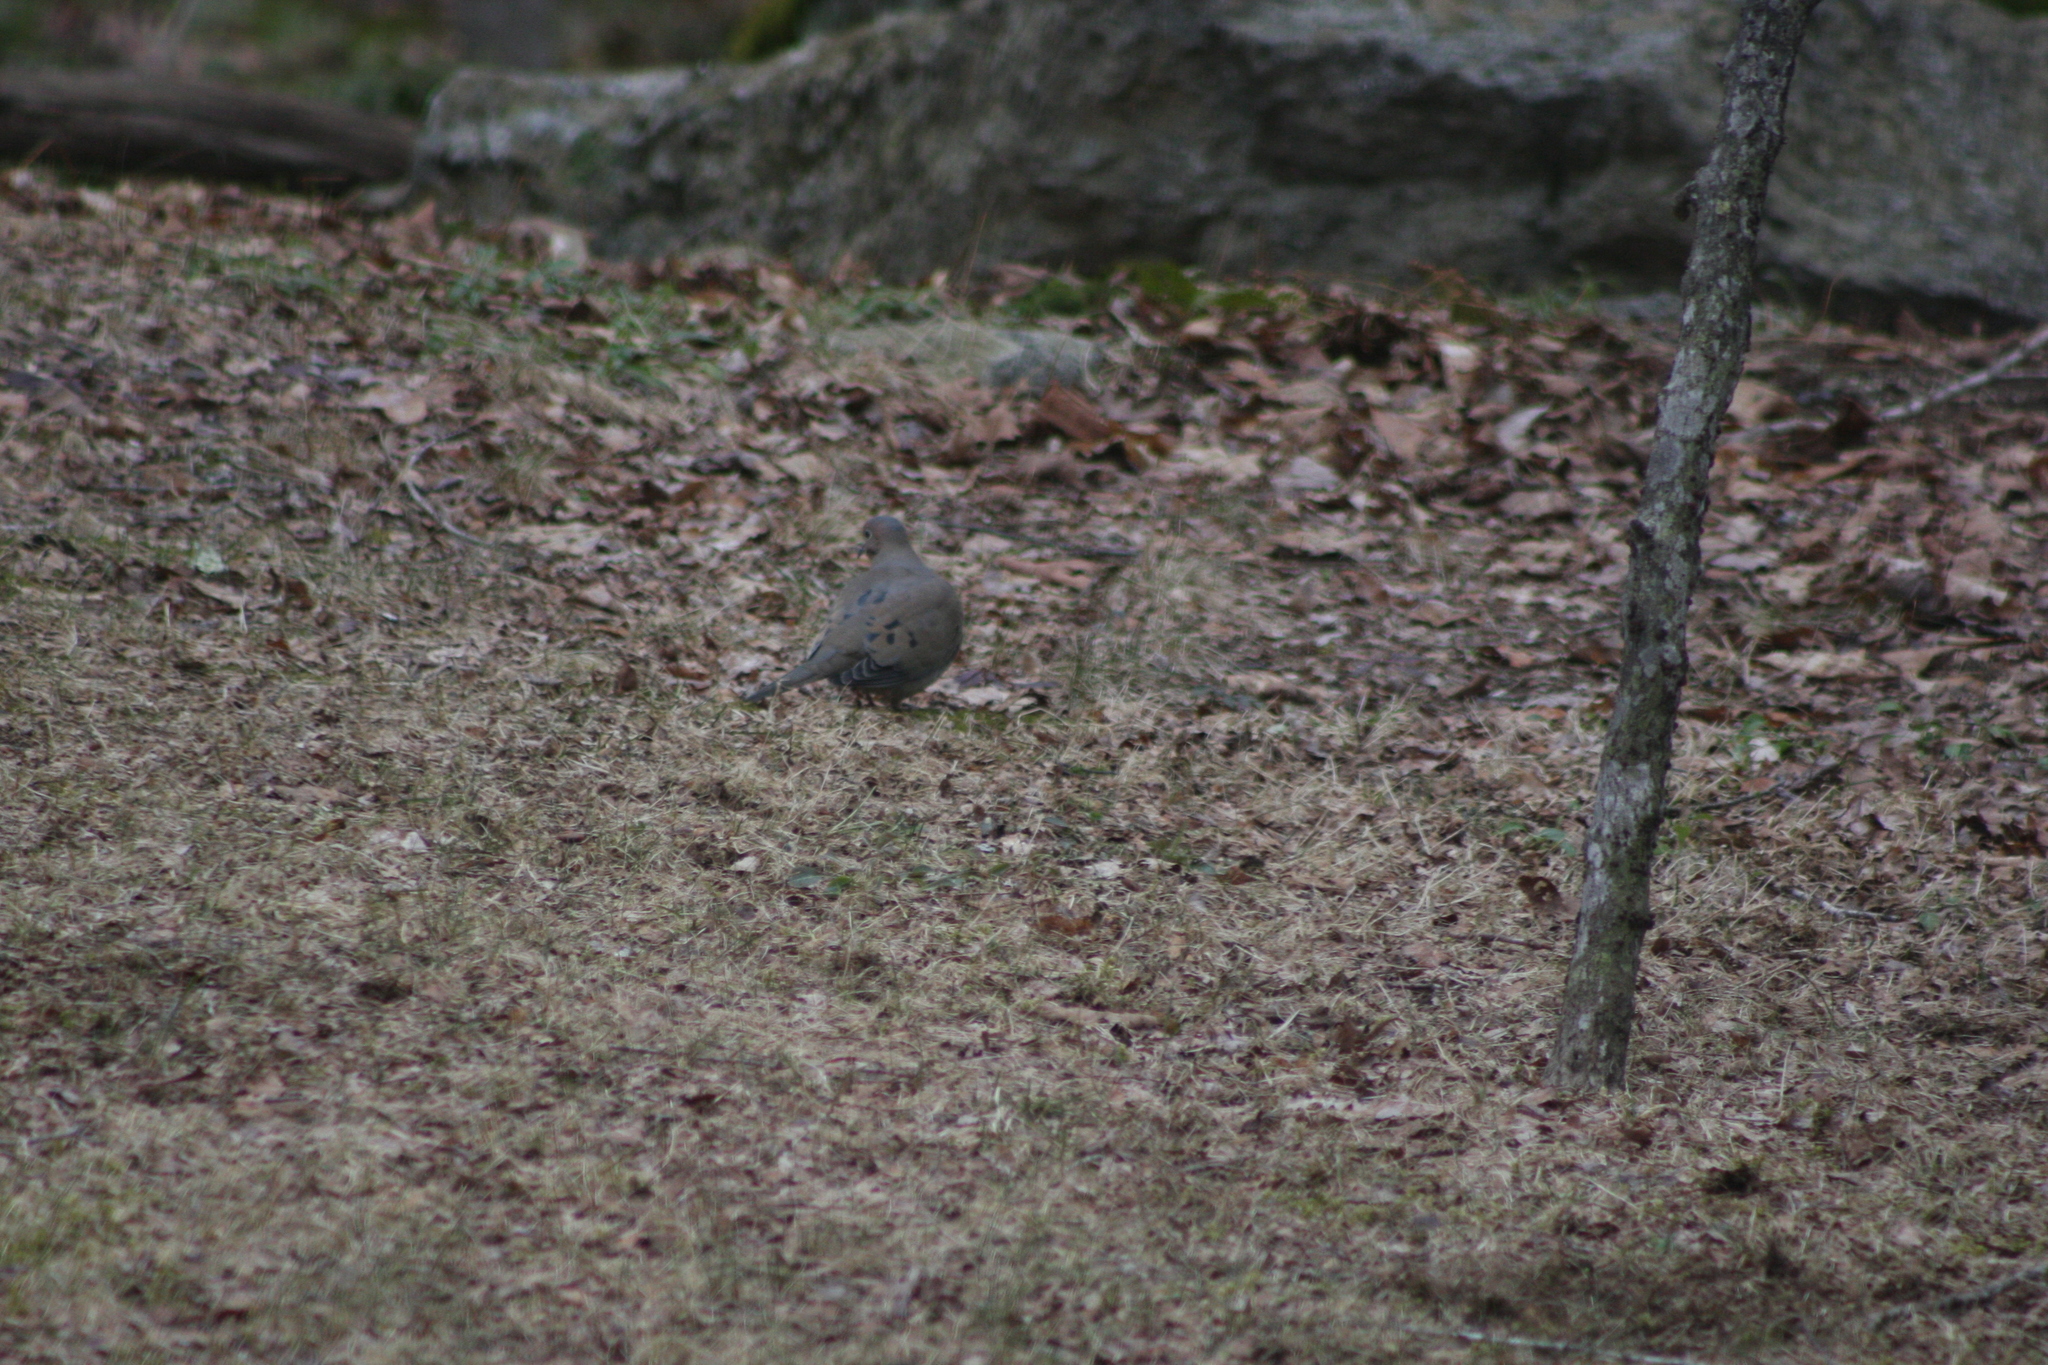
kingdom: Animalia
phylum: Chordata
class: Aves
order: Columbiformes
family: Columbidae
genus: Zenaida
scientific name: Zenaida macroura
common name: Mourning dove
